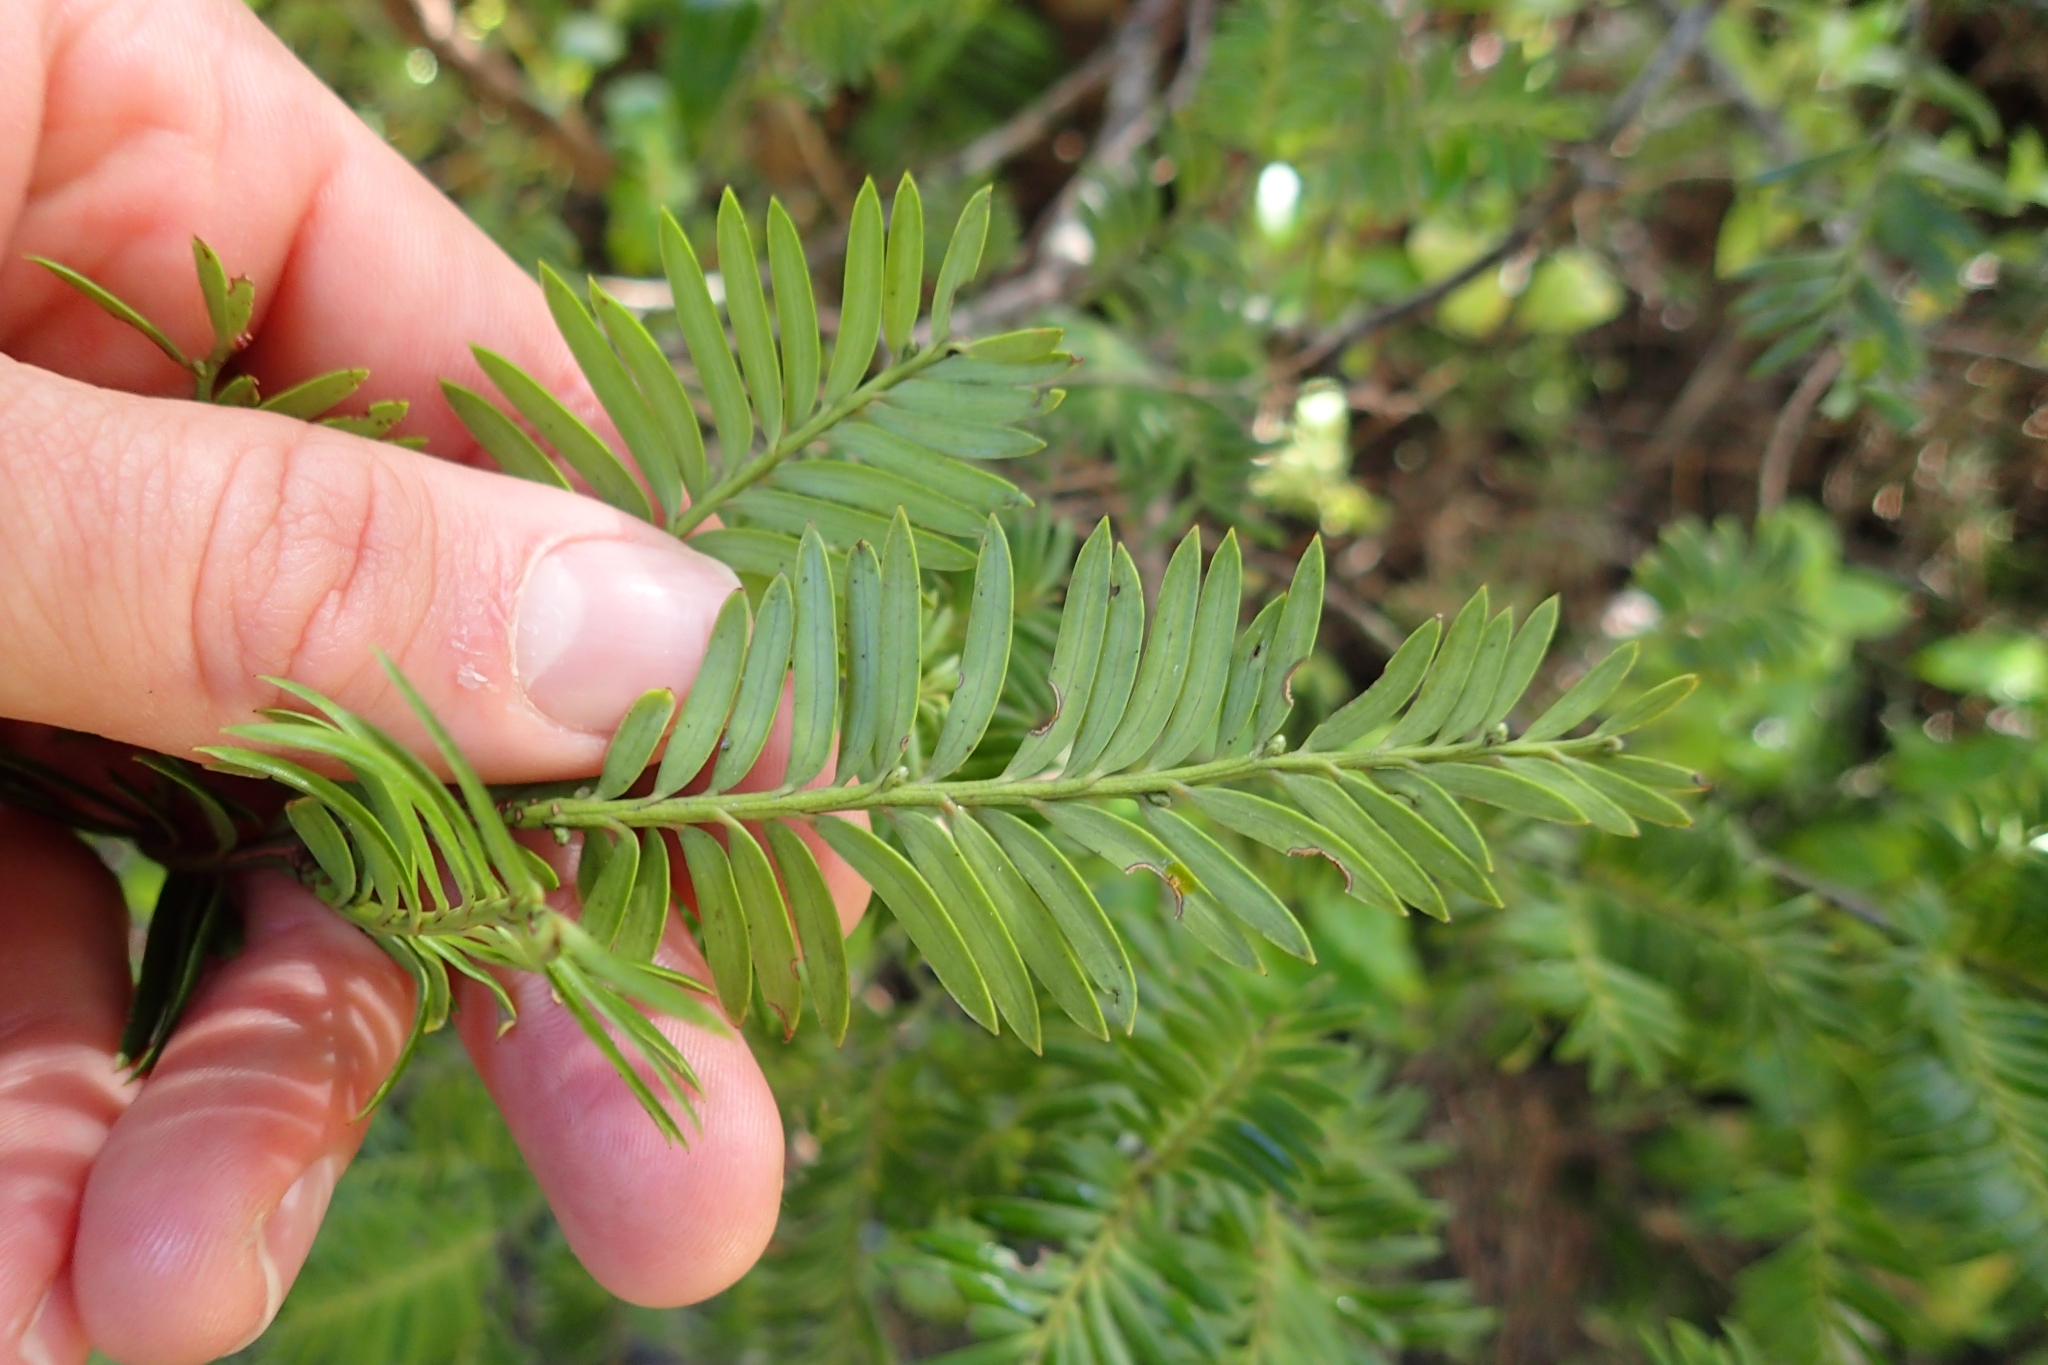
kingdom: Plantae
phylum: Tracheophyta
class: Pinopsida
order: Pinales
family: Podocarpaceae
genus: Prumnopitys
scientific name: Prumnopitys ferruginea
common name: Brown pine
